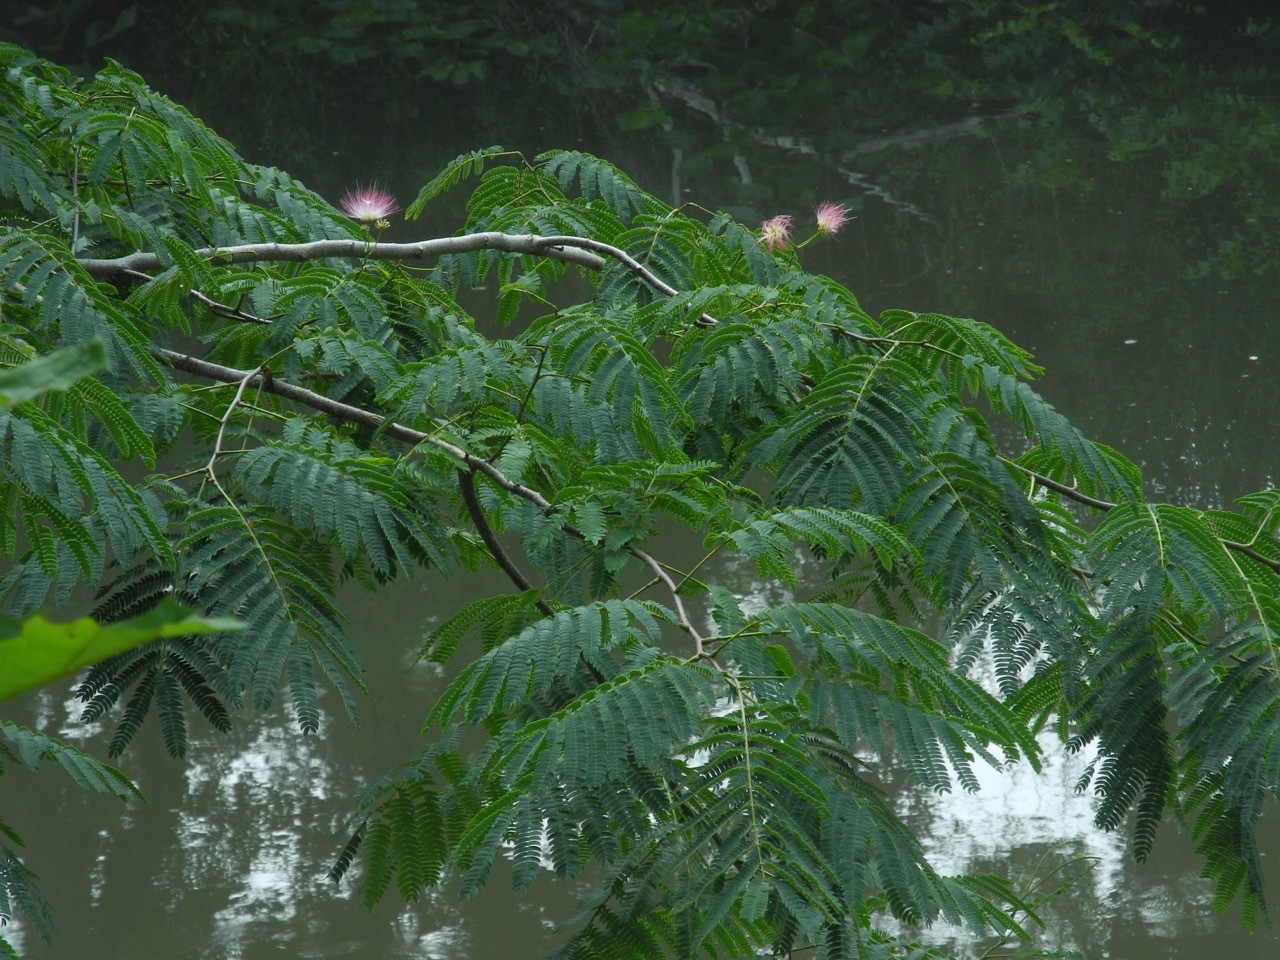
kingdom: Plantae
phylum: Tracheophyta
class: Magnoliopsida
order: Fabales
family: Fabaceae
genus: Albizia
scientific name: Albizia julibrissin
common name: Silktree
